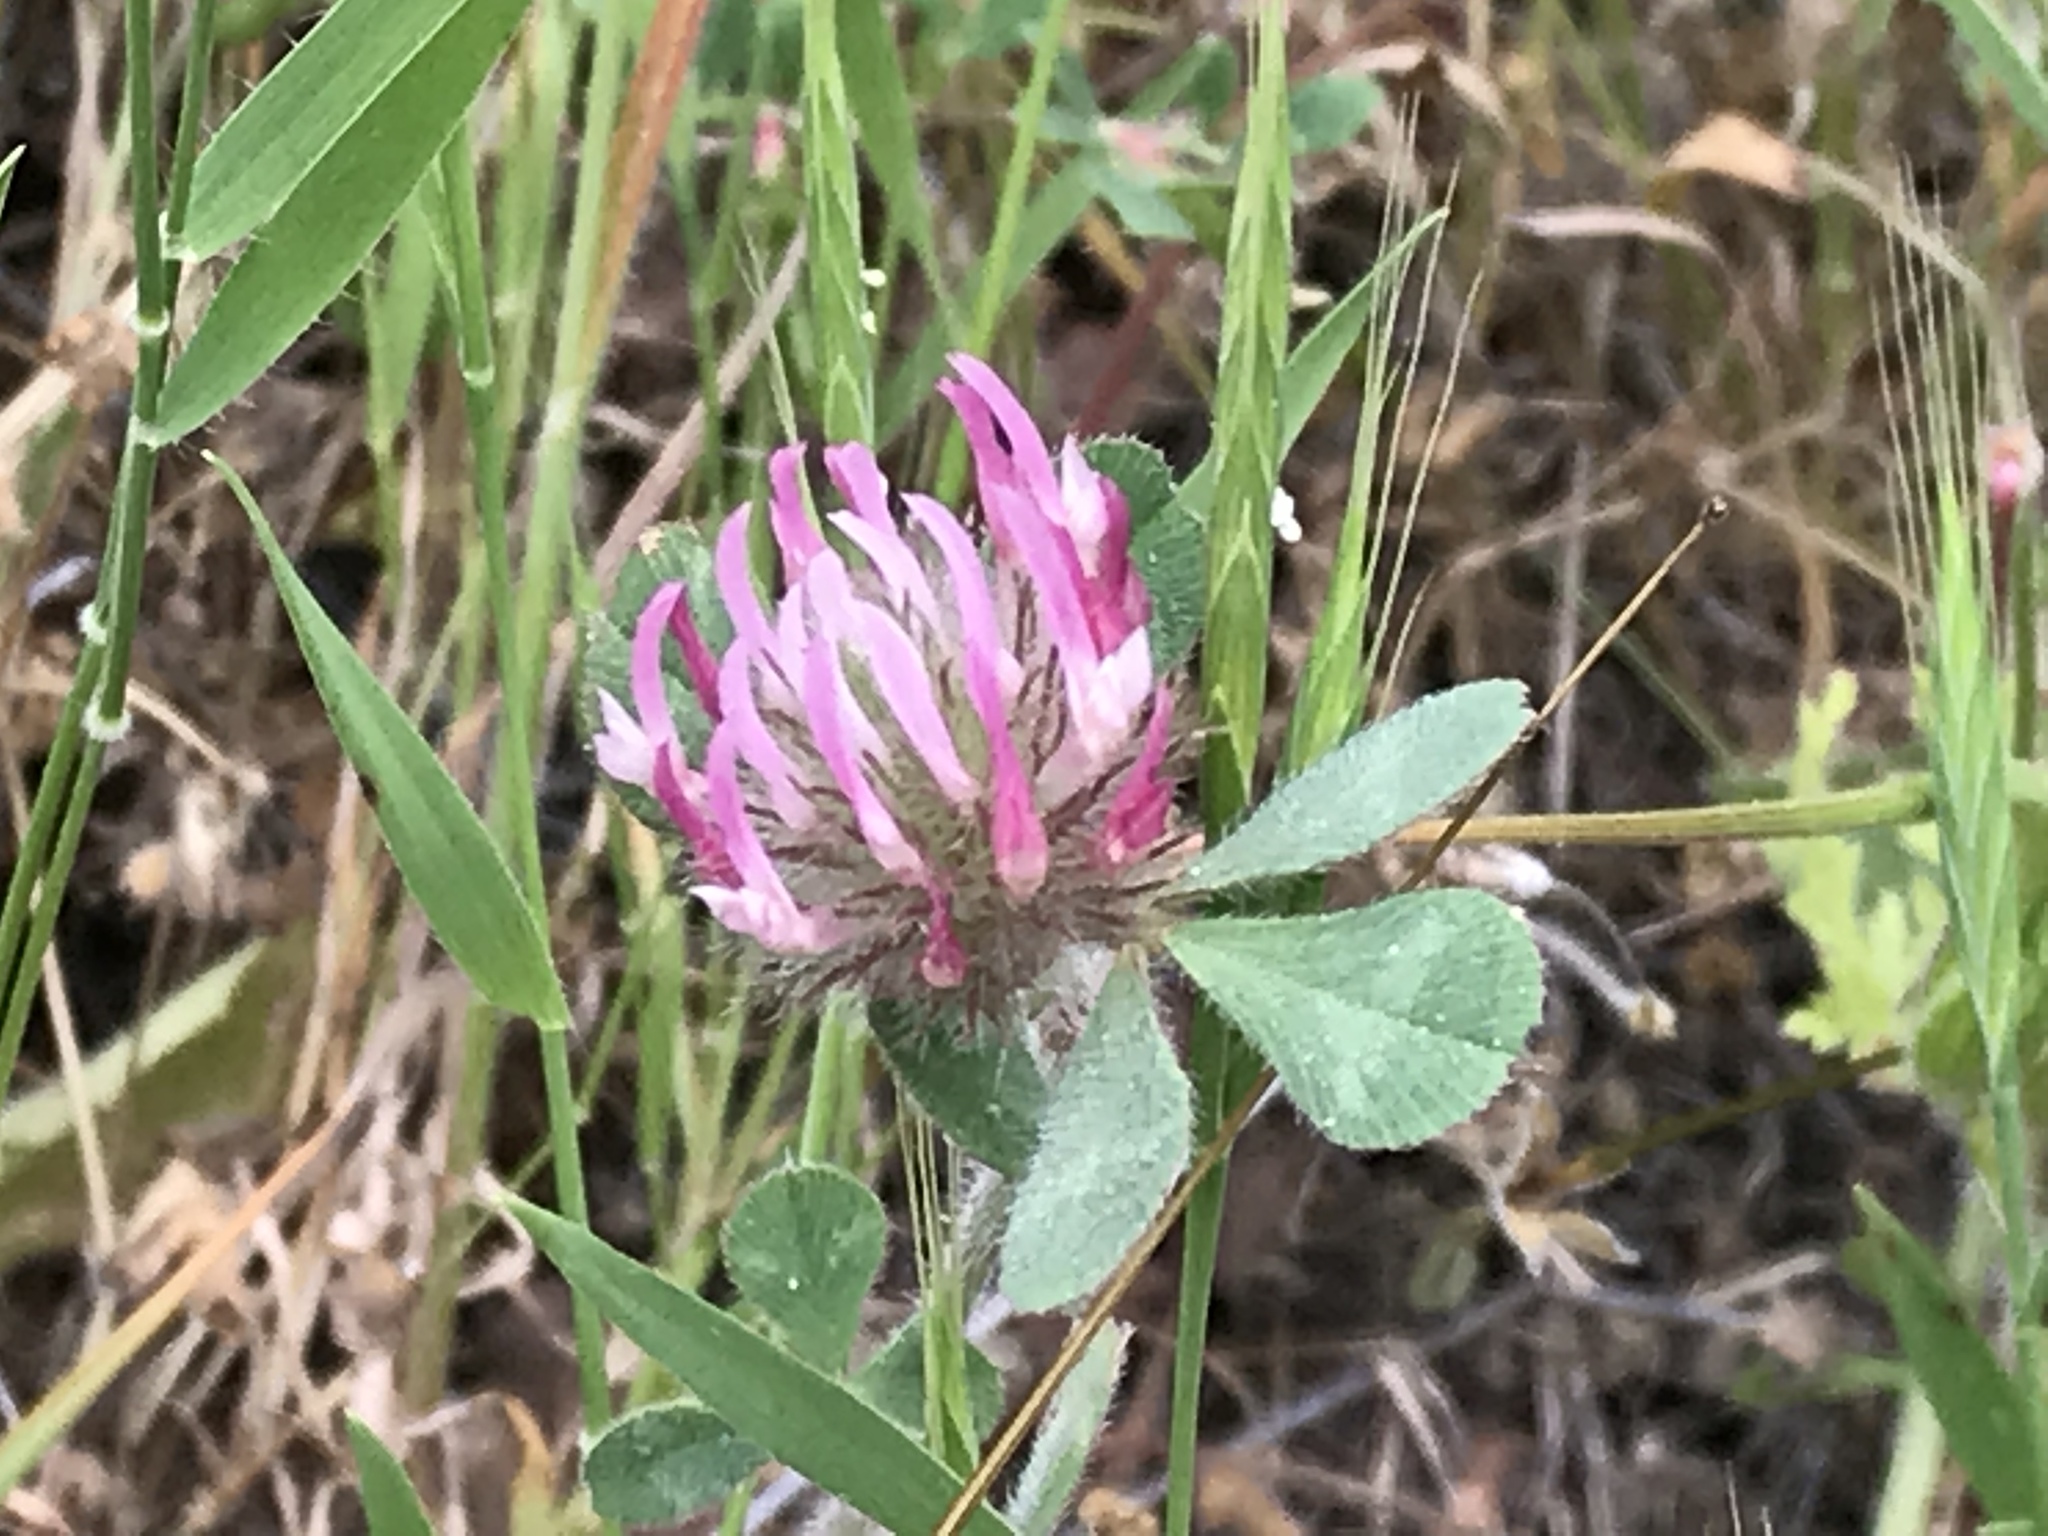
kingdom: Plantae
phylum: Tracheophyta
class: Magnoliopsida
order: Fabales
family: Fabaceae
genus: Trifolium
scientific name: Trifolium hirtum
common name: Rose clover
